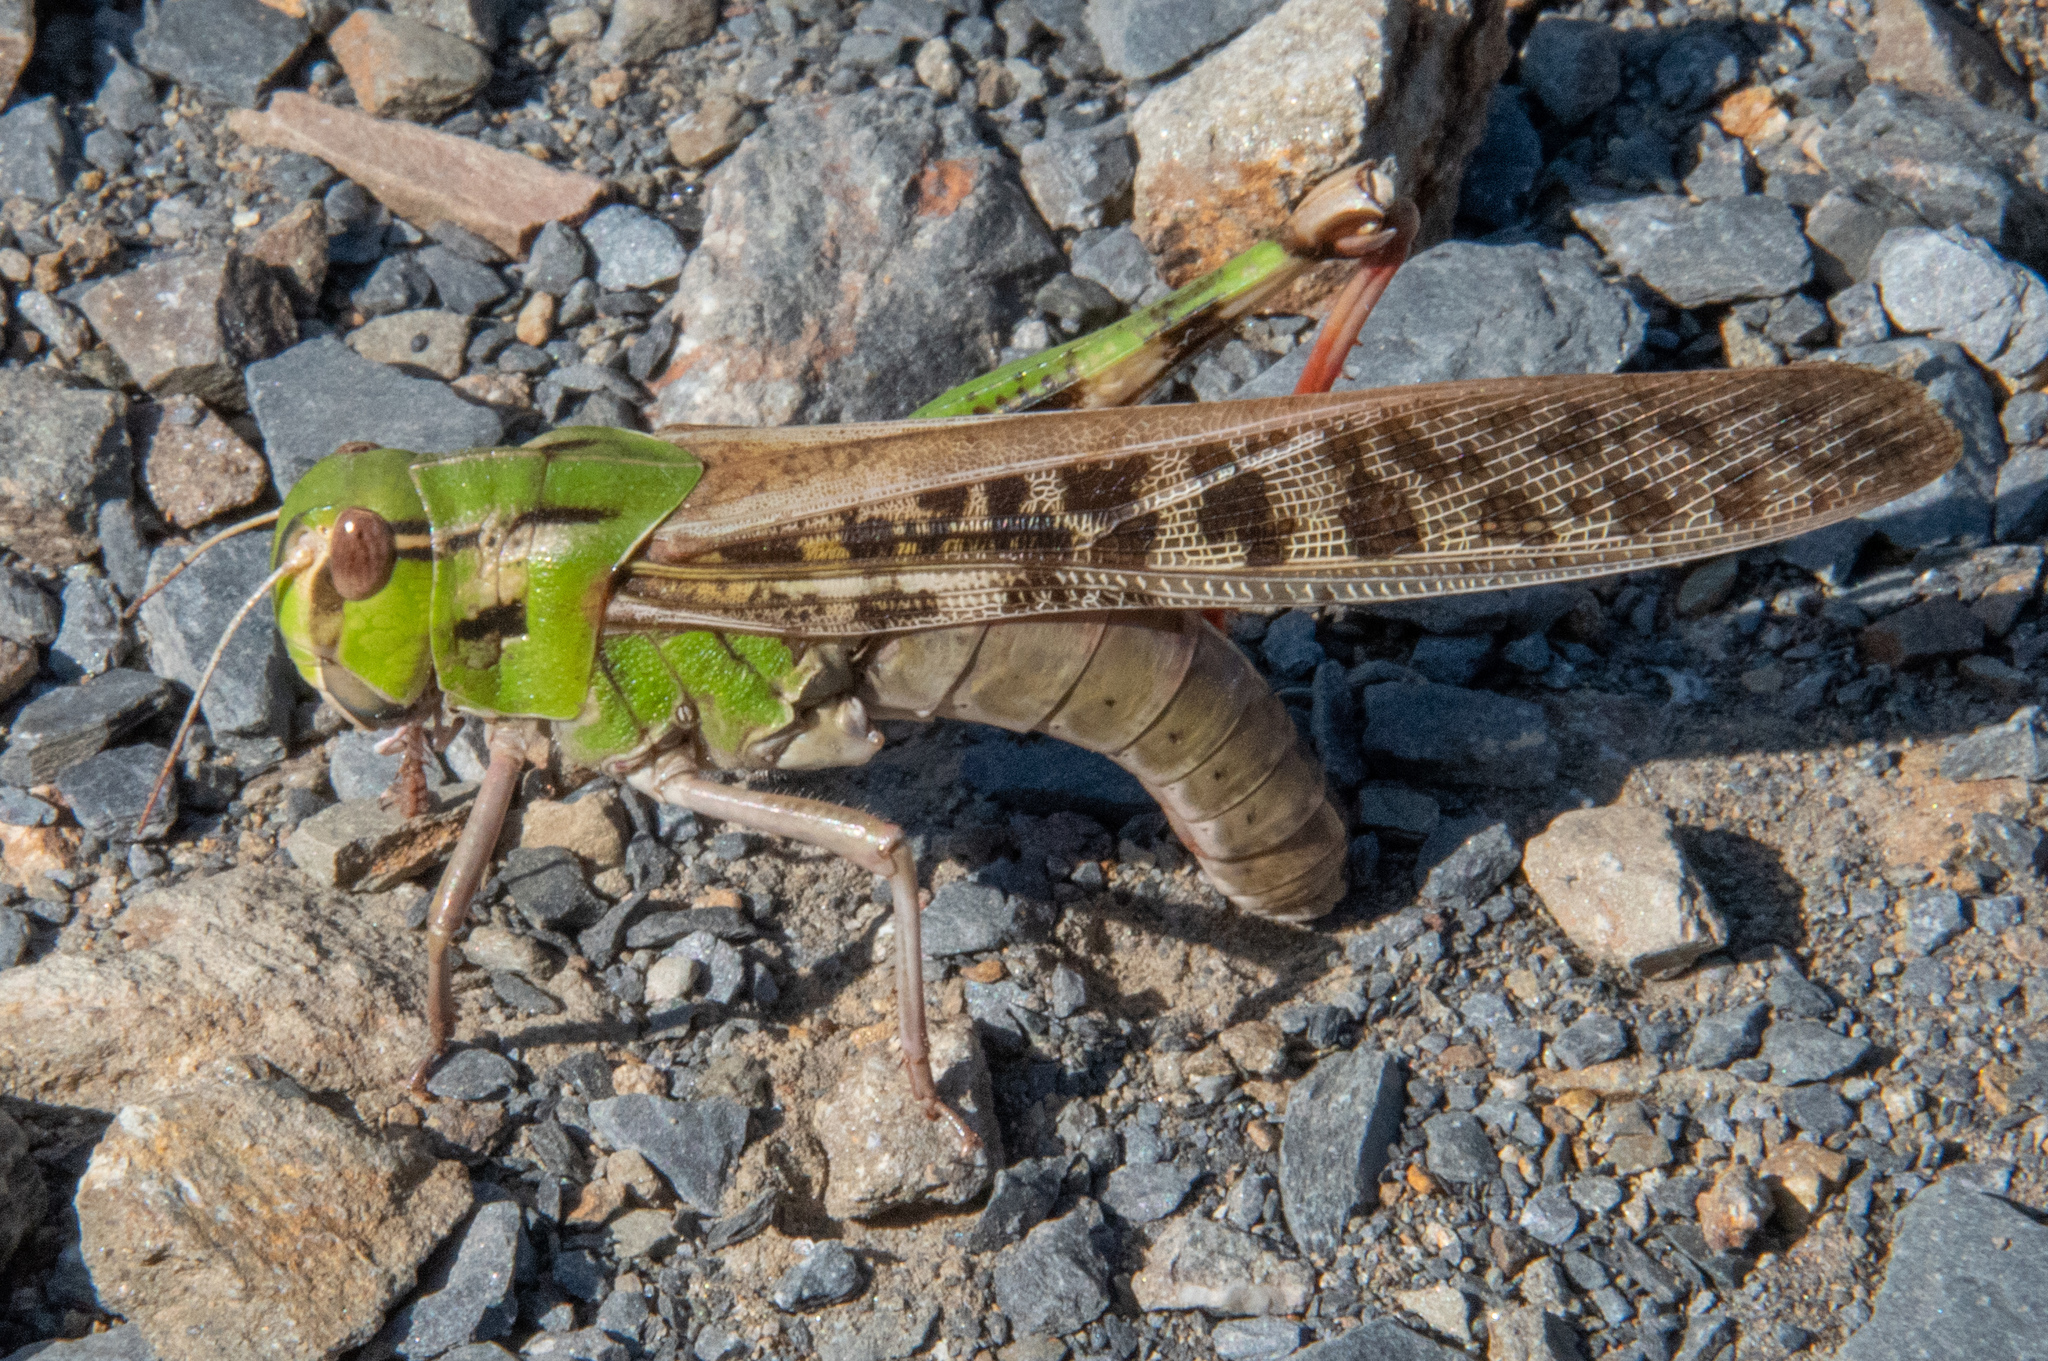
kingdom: Animalia
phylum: Arthropoda
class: Insecta
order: Orthoptera
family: Acrididae
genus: Locusta
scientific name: Locusta migratoria
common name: Migratory locust
